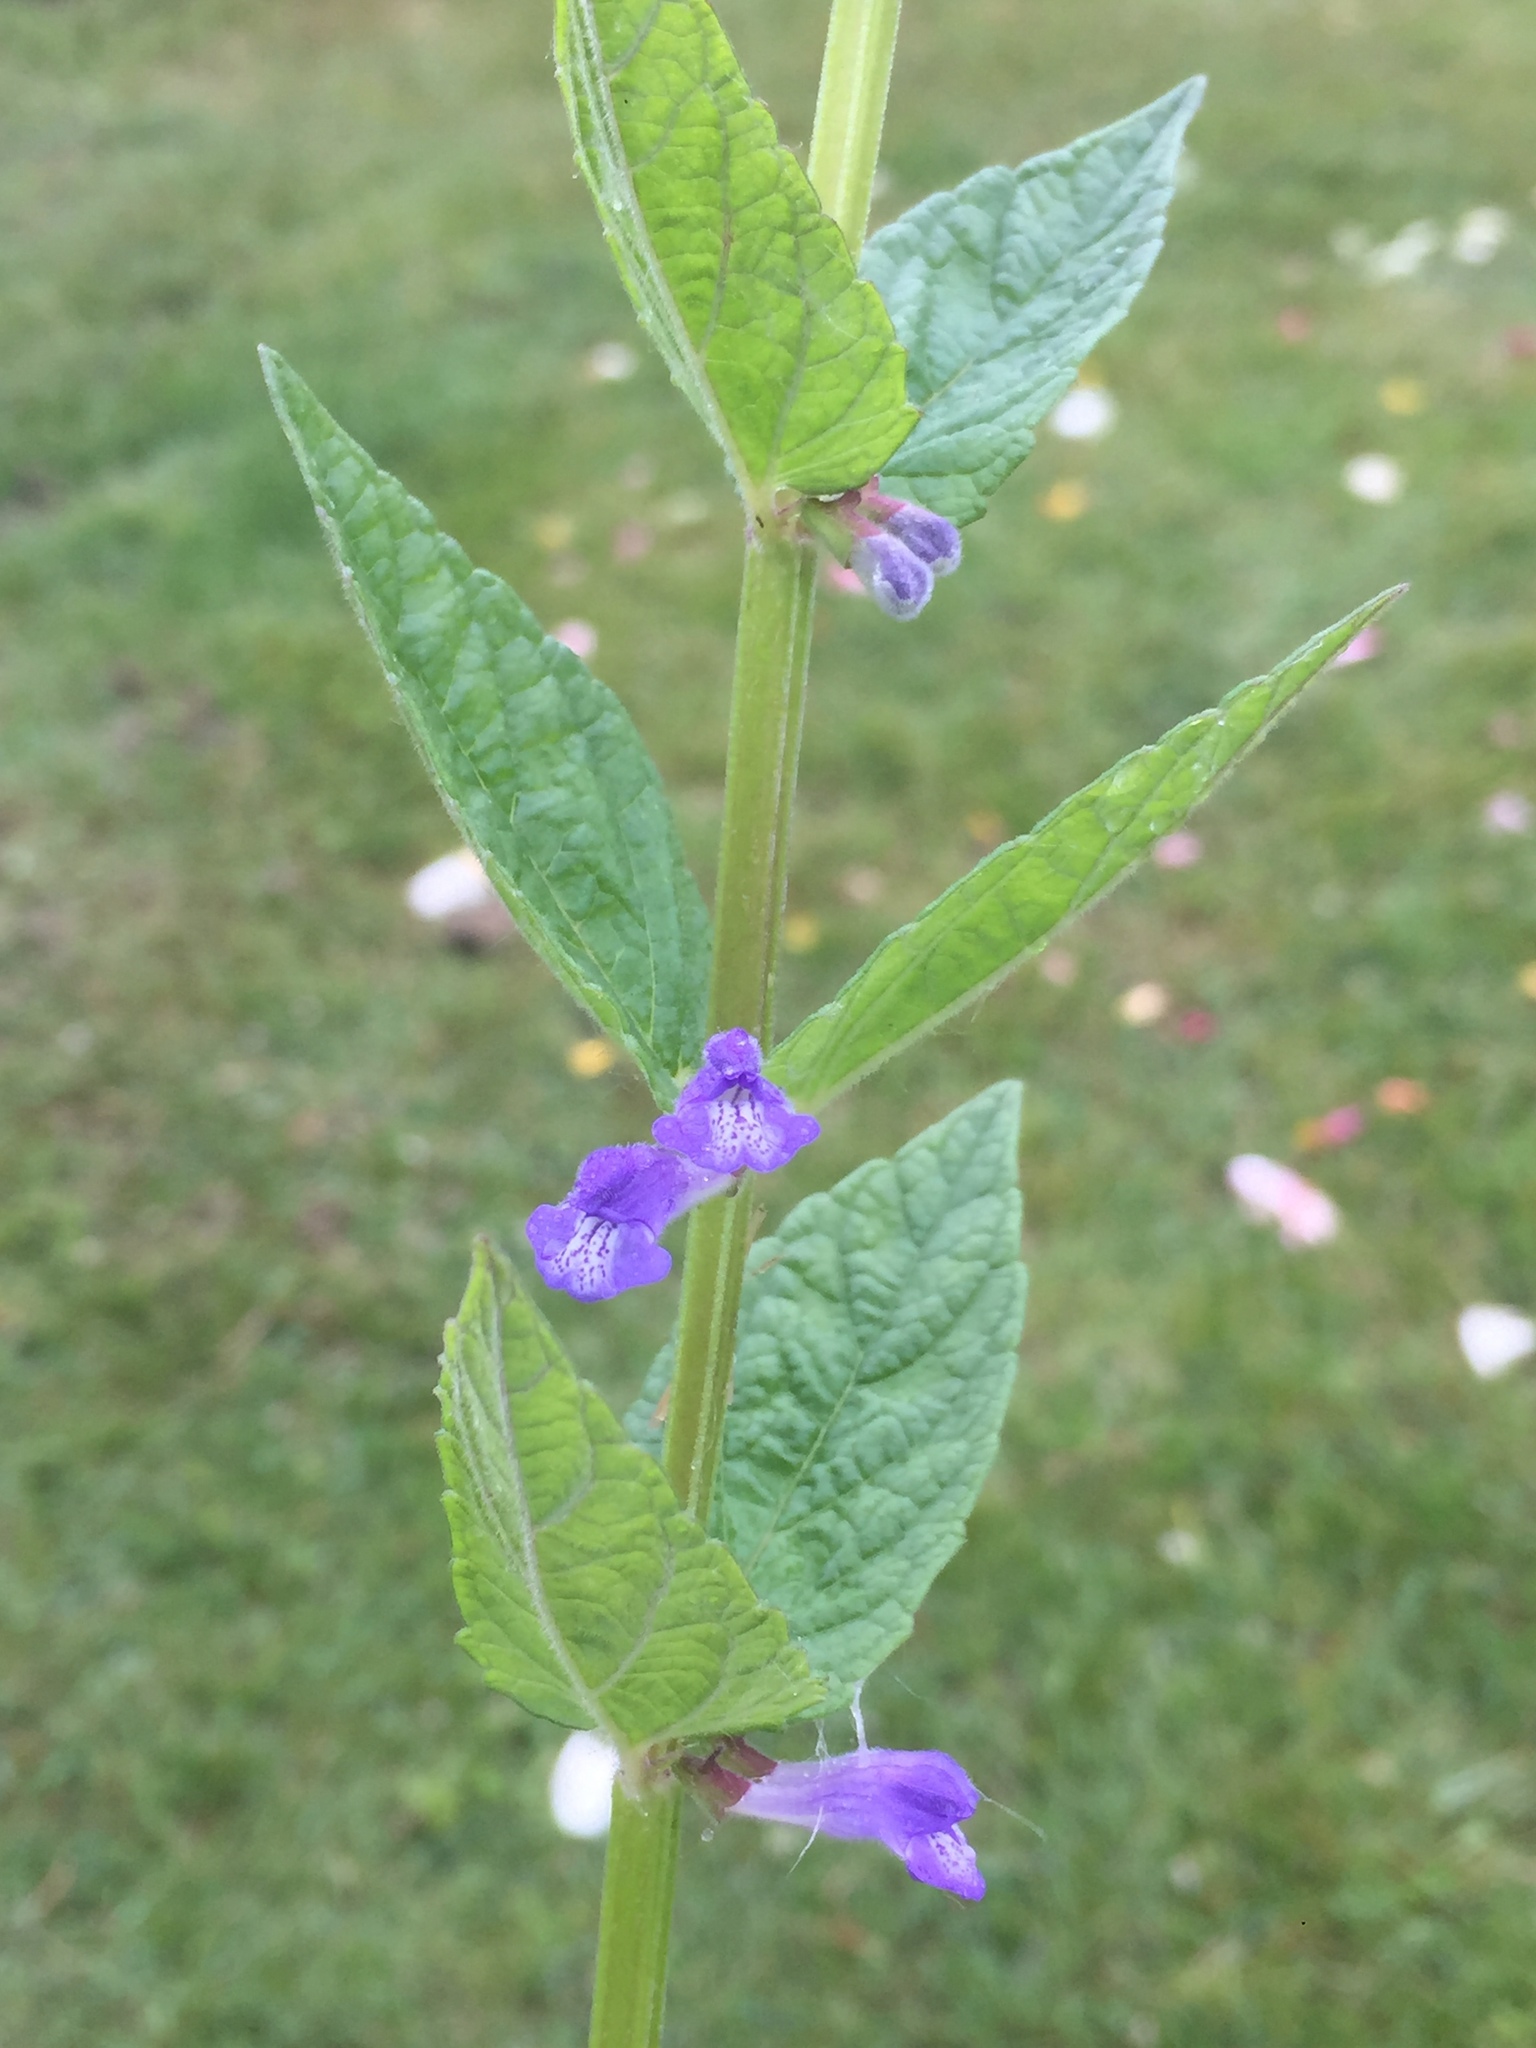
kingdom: Plantae
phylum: Tracheophyta
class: Magnoliopsida
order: Lamiales
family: Lamiaceae
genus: Scutellaria
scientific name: Scutellaria galericulata
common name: Skullcap
